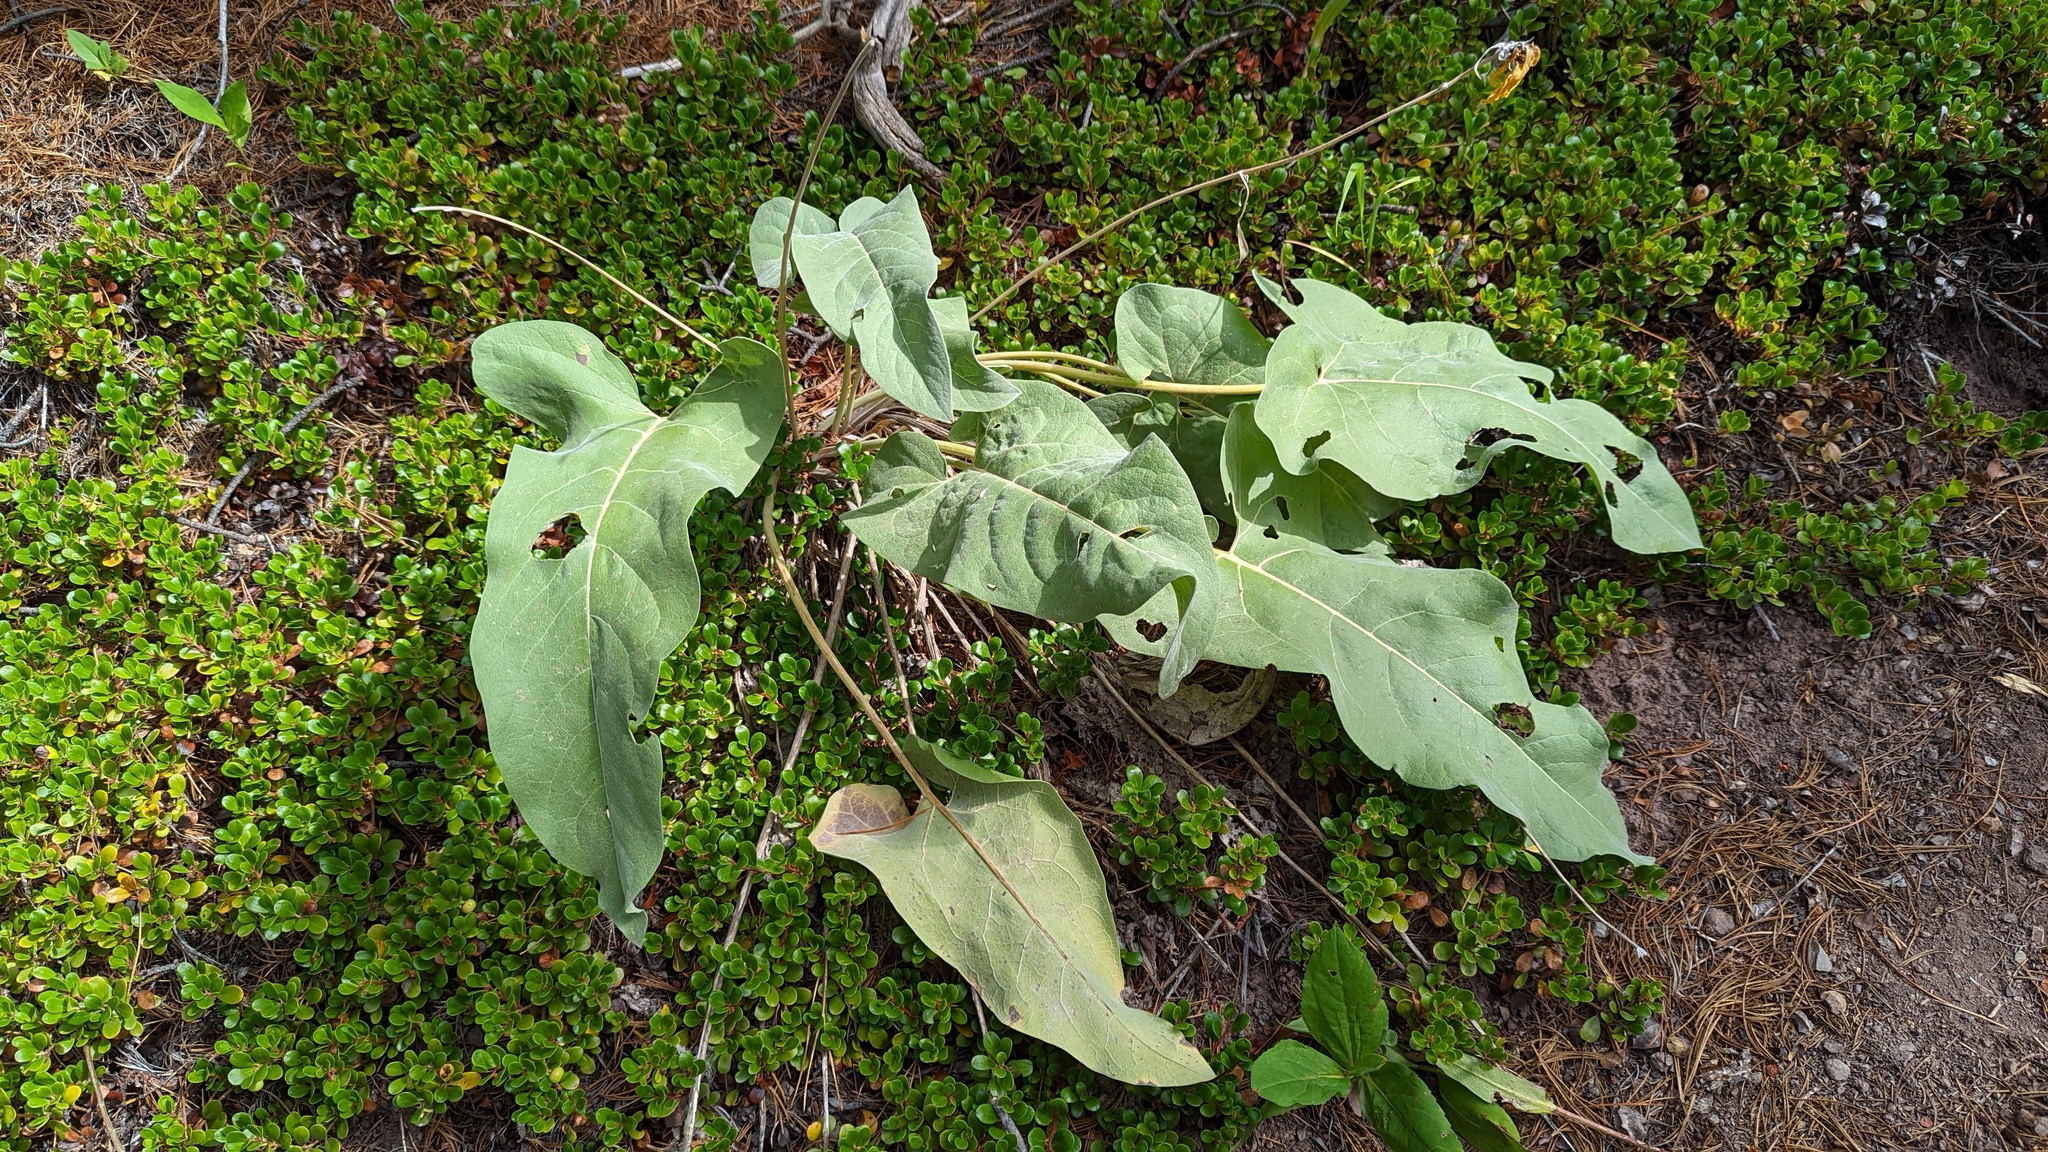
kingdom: Plantae
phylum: Tracheophyta
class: Magnoliopsida
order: Asterales
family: Asteraceae
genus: Wyethia
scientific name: Wyethia sagittata
